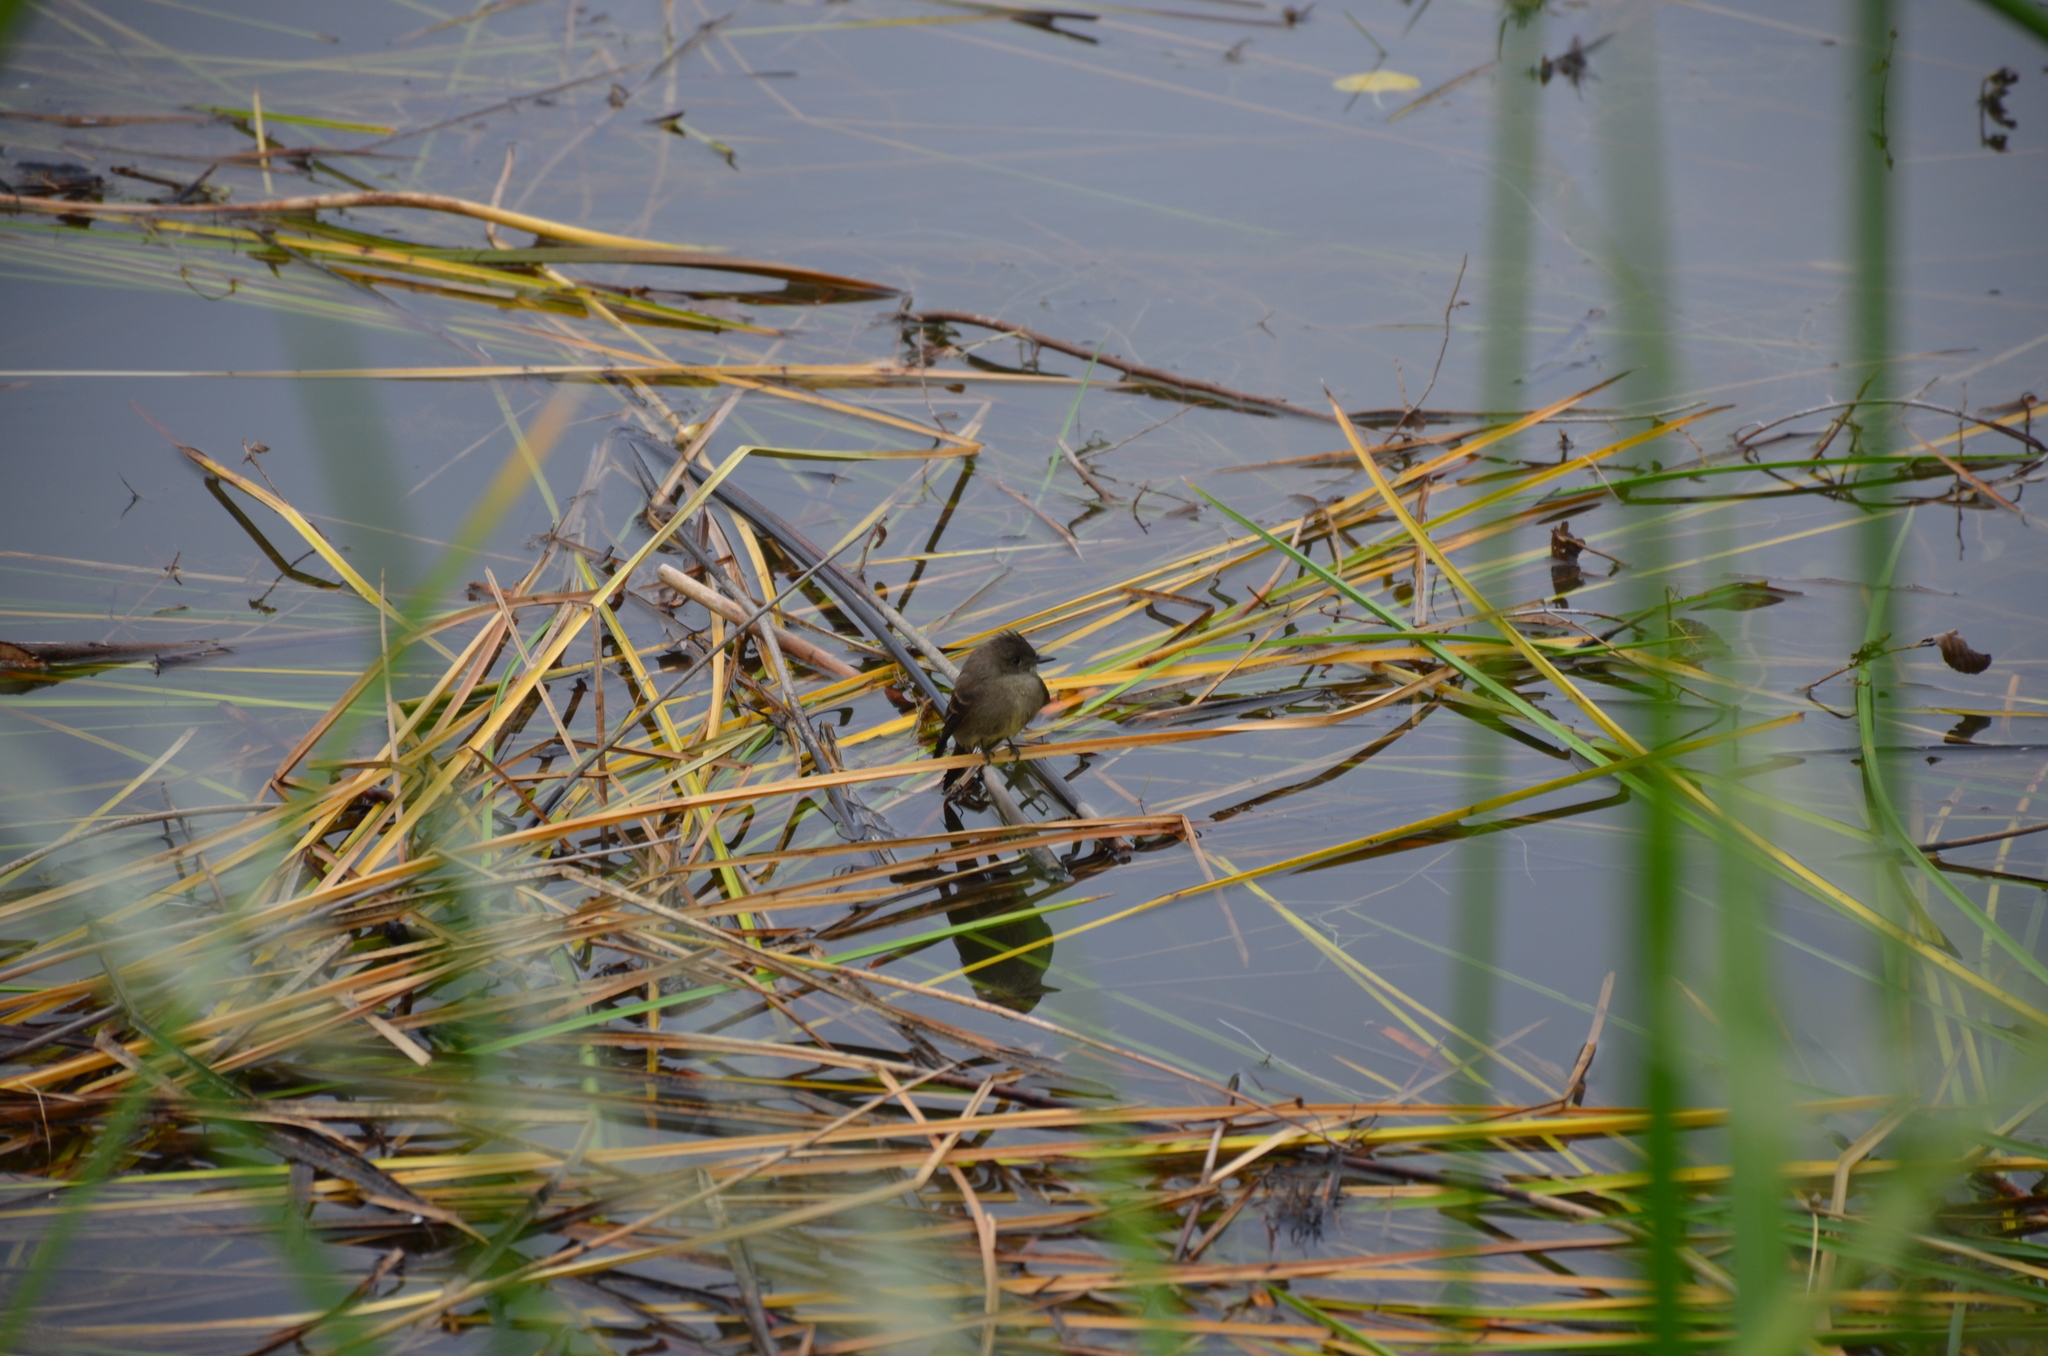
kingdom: Animalia
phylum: Chordata
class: Aves
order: Passeriformes
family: Tyrannidae
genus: Contopus
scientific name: Contopus sordidulus
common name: Western wood-pewee
